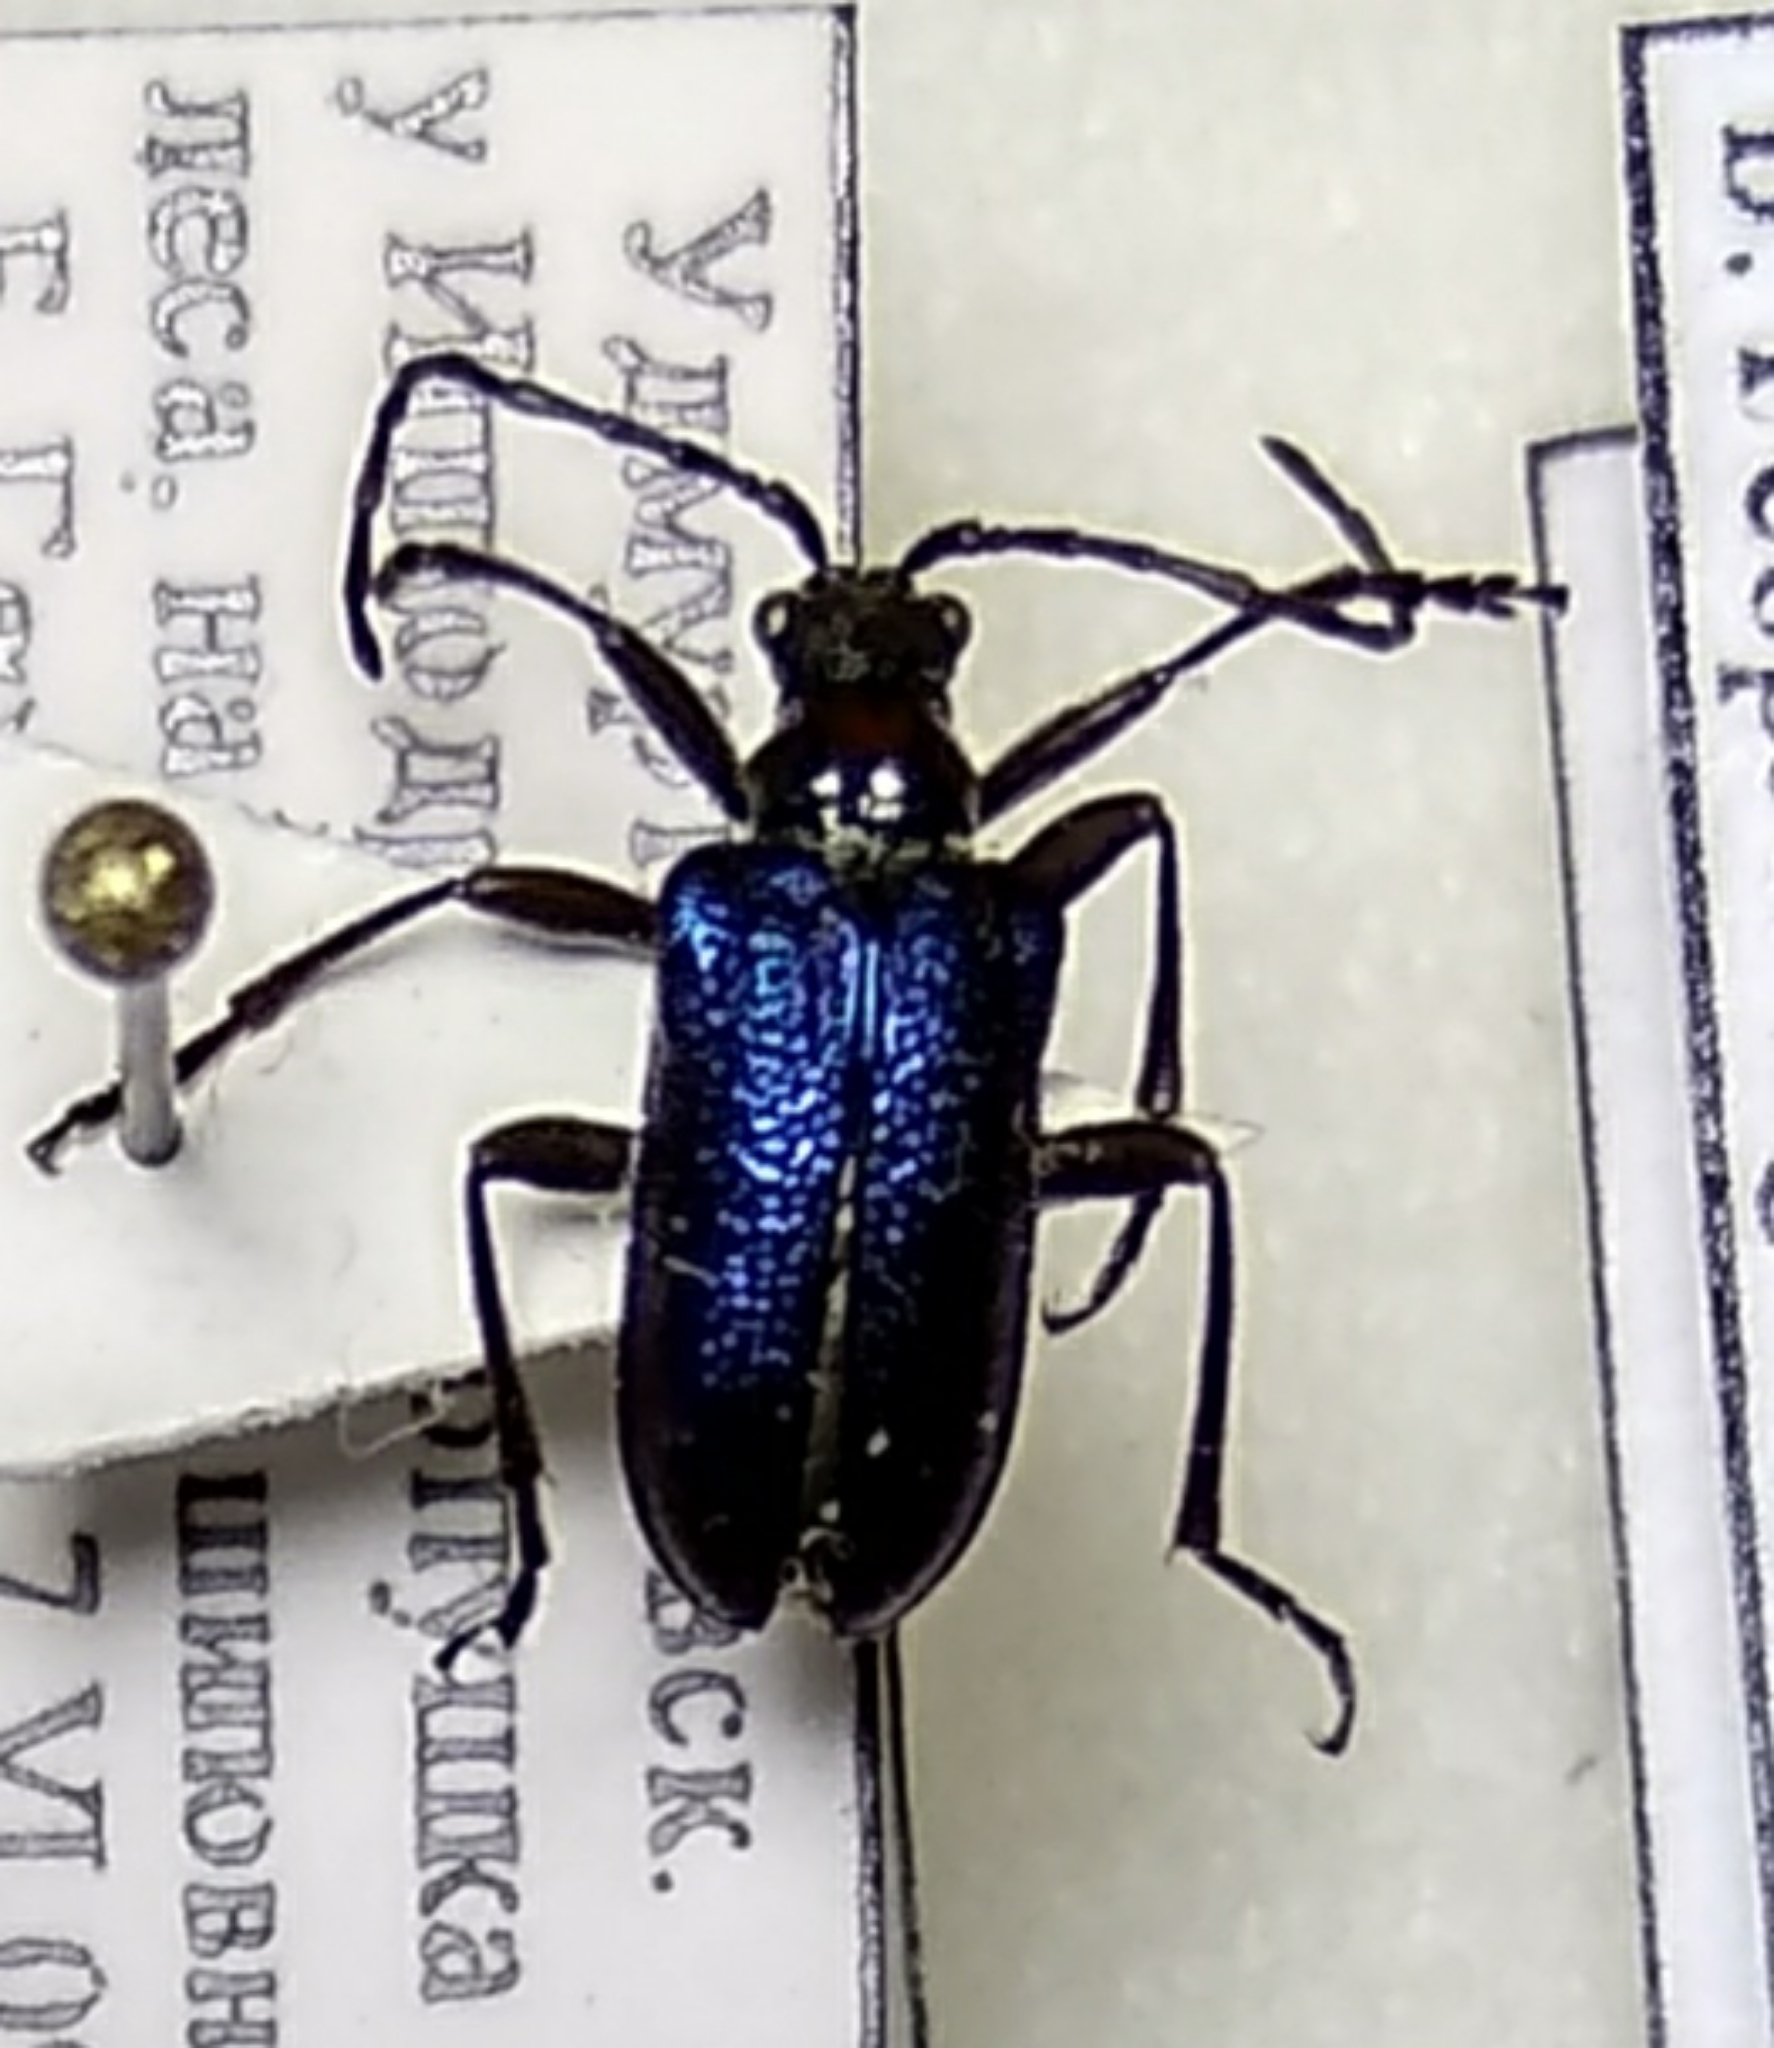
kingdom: Animalia
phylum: Arthropoda
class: Insecta
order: Coleoptera
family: Cerambycidae
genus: Gaurotes
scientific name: Gaurotes virginea
